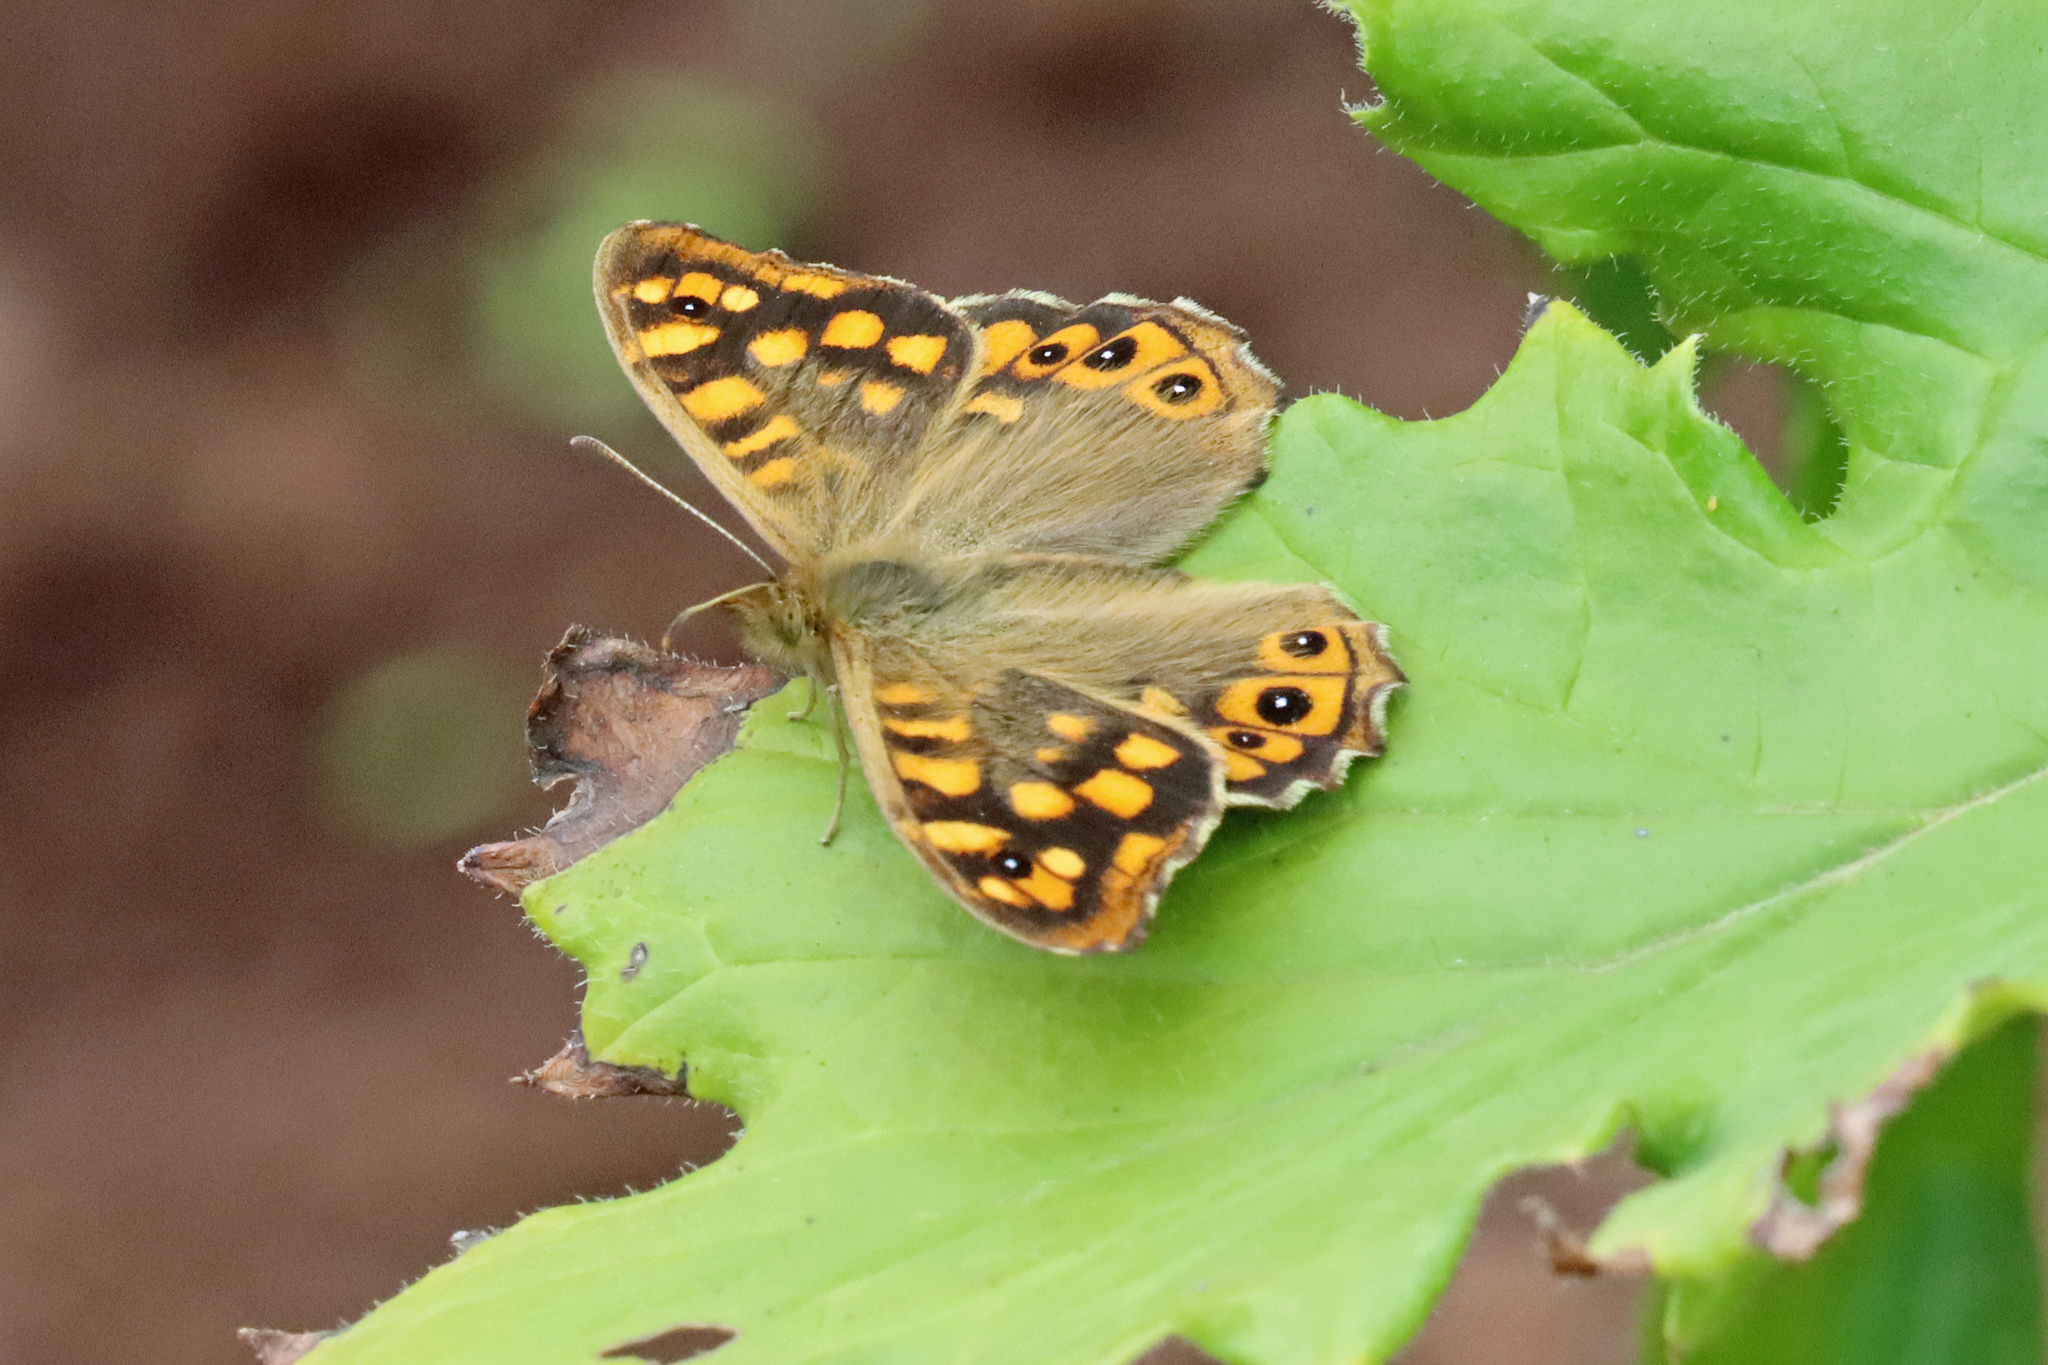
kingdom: Animalia
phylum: Arthropoda
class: Insecta
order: Lepidoptera
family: Nymphalidae
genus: Pararge
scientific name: Pararge aegeria
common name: Speckled wood
